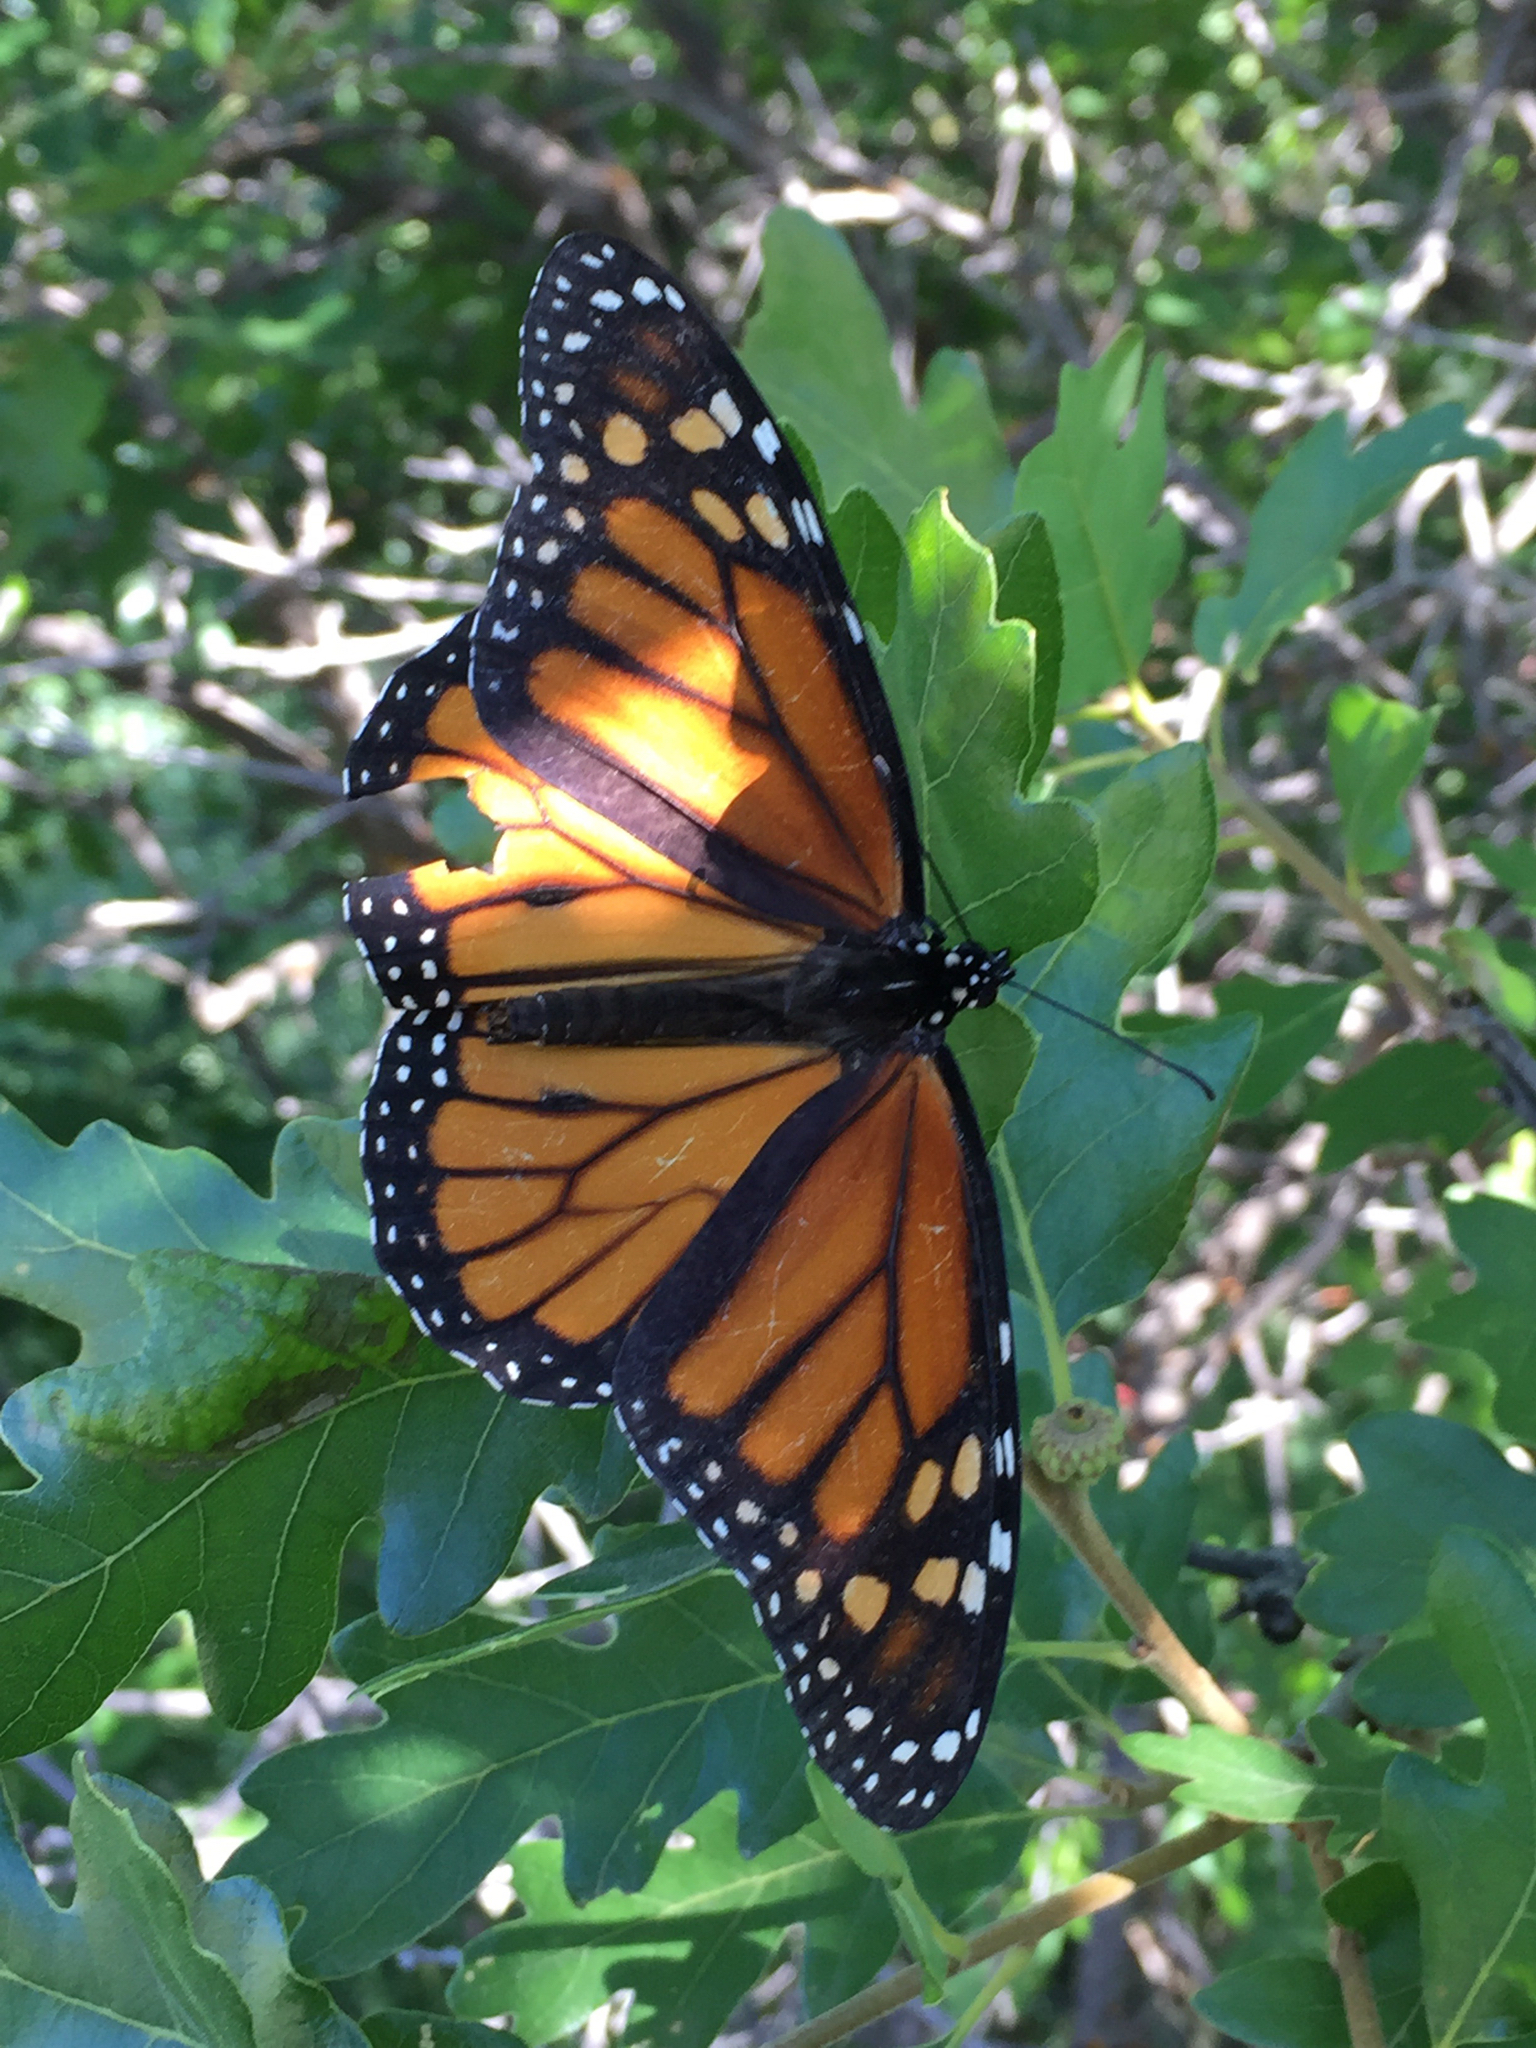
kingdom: Animalia
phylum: Arthropoda
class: Insecta
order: Lepidoptera
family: Nymphalidae
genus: Danaus
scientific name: Danaus plexippus
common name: Monarch
